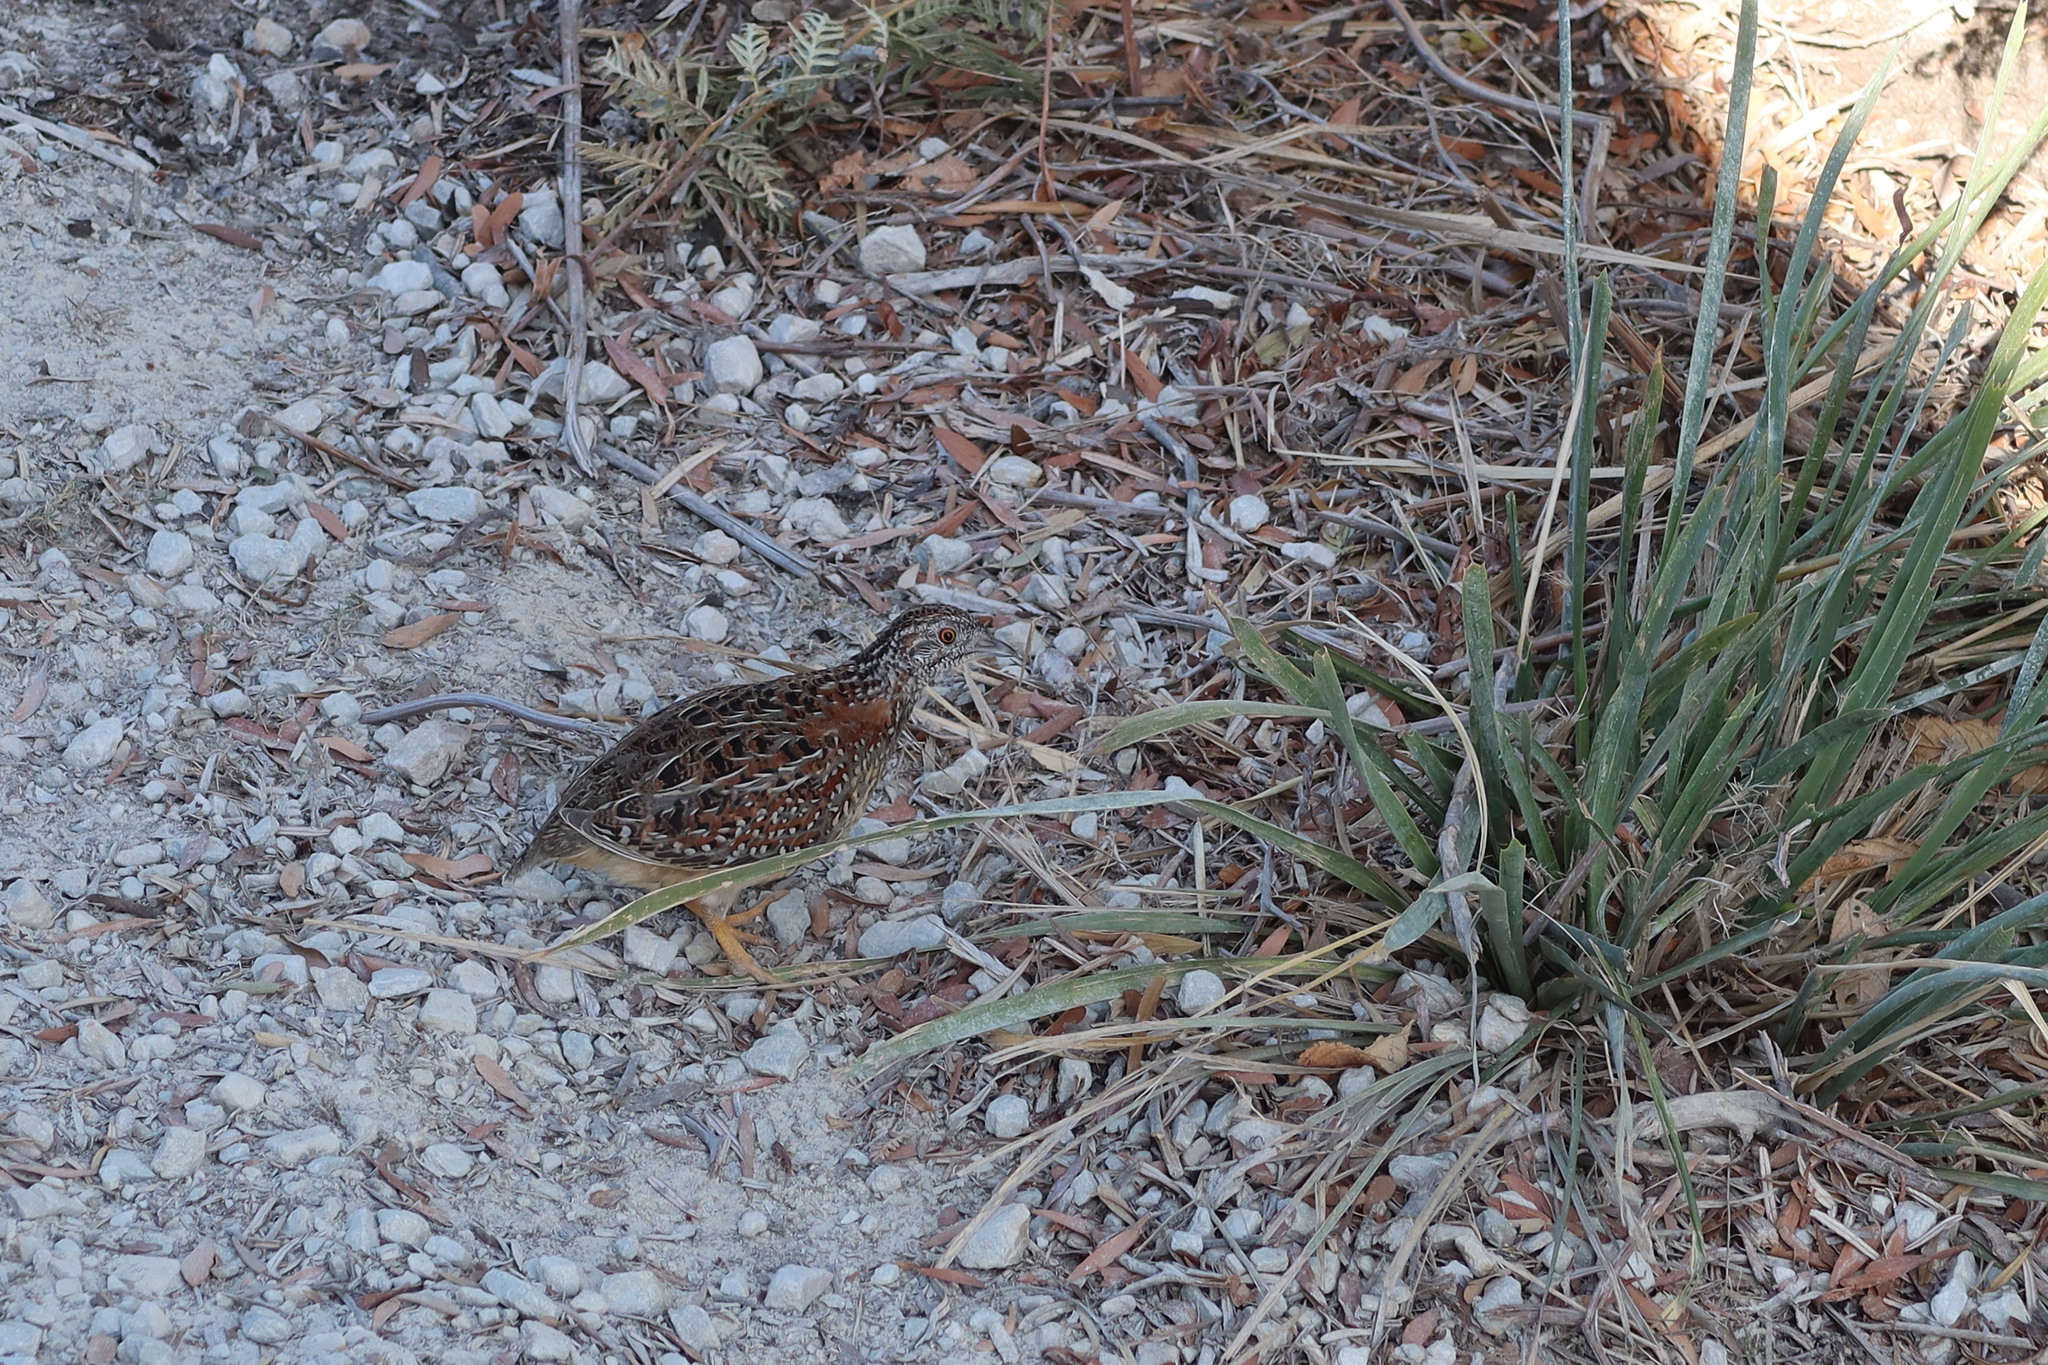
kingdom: Animalia
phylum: Chordata
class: Aves
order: Charadriiformes
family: Turnicidae
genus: Turnix
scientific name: Turnix varius
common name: Painted buttonquail
